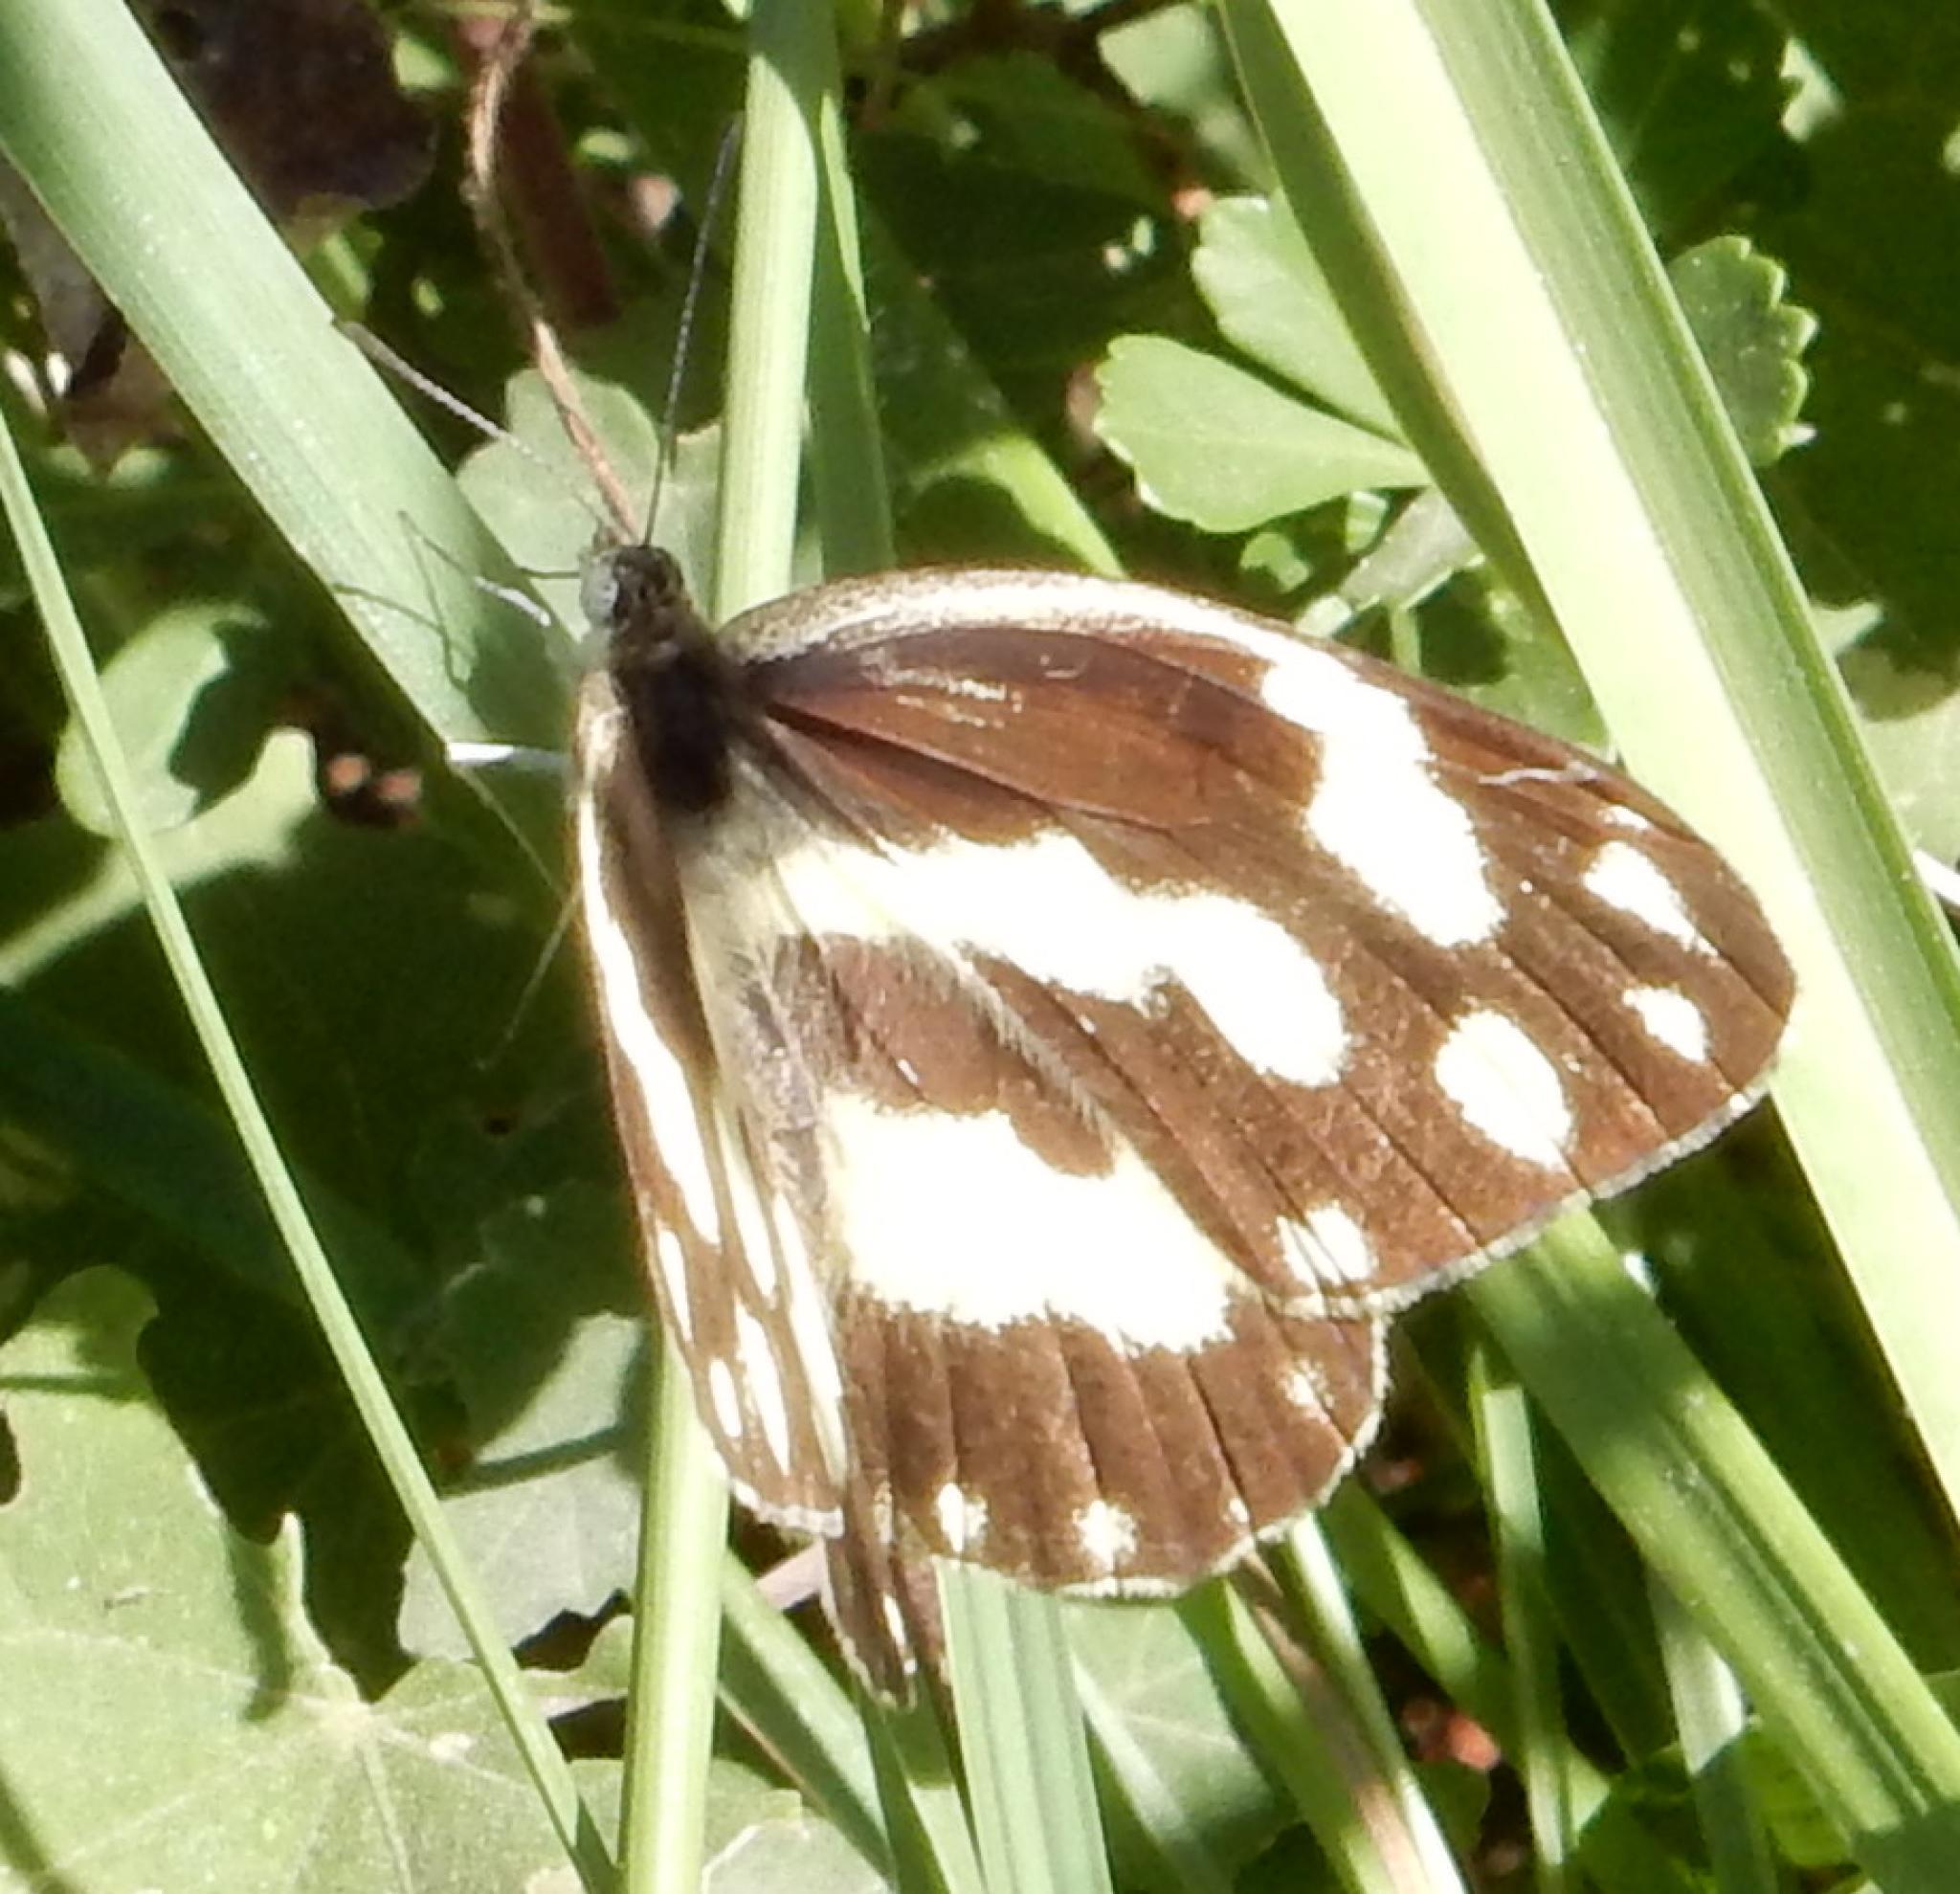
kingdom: Animalia
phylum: Arthropoda
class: Insecta
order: Lepidoptera
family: Pieridae
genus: Pinacopteryx
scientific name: Pinacopteryx eriphia
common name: Zebra white
